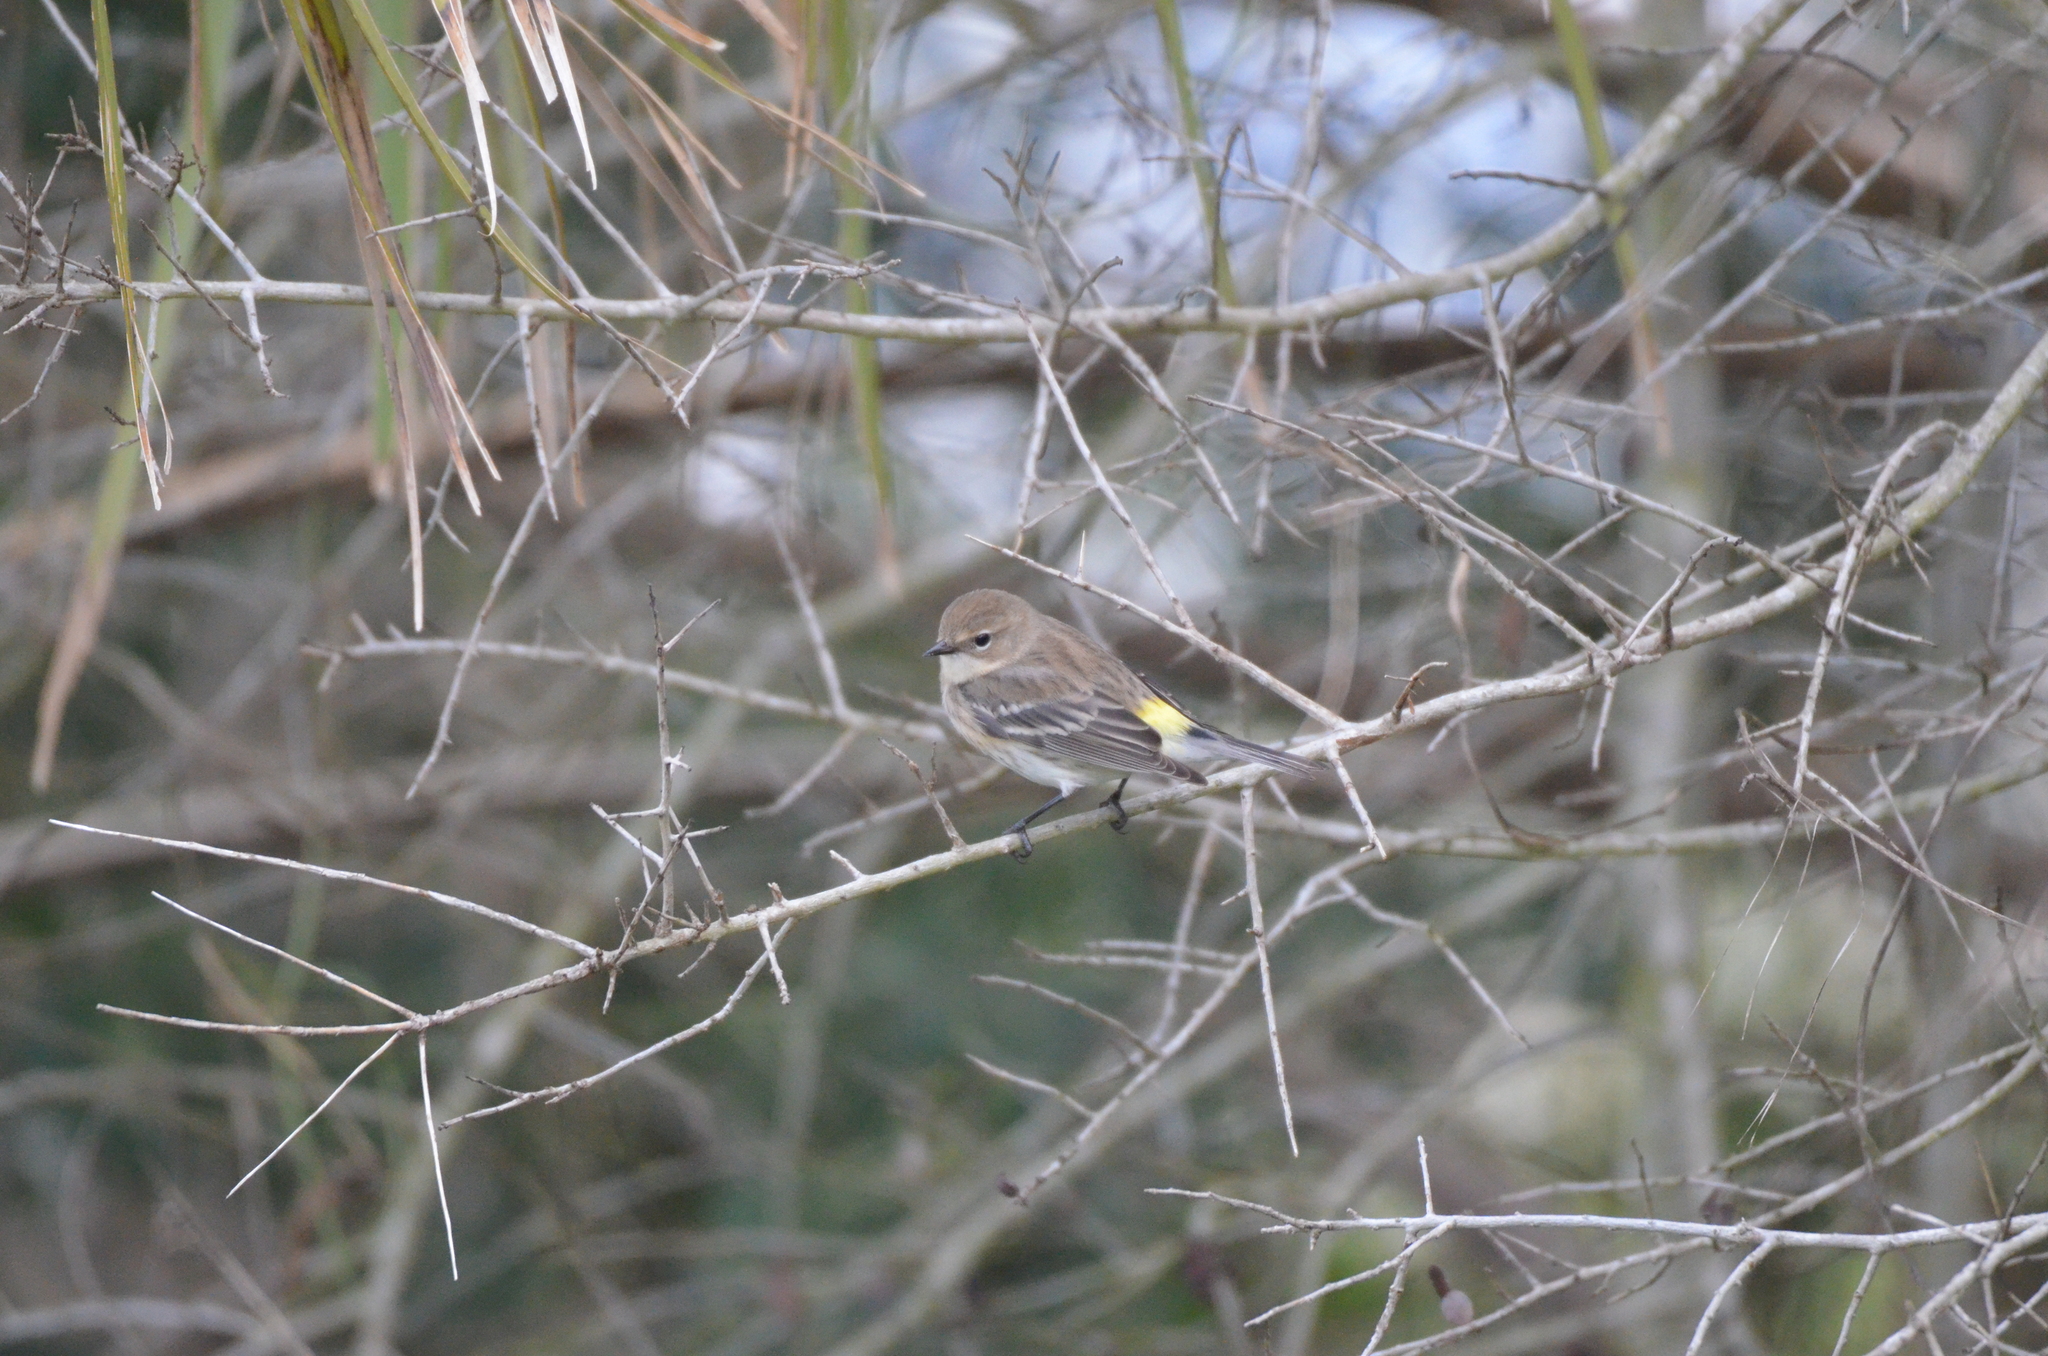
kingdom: Animalia
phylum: Chordata
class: Aves
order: Passeriformes
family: Parulidae
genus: Setophaga
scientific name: Setophaga coronata
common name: Myrtle warbler
